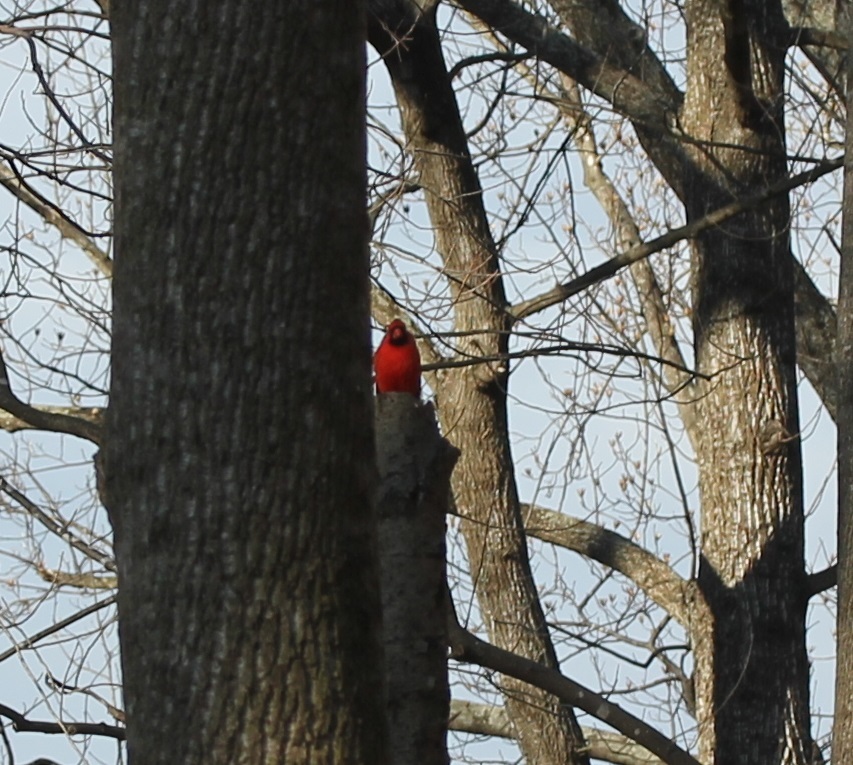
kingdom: Animalia
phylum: Chordata
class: Aves
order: Passeriformes
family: Cardinalidae
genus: Cardinalis
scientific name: Cardinalis cardinalis
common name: Northern cardinal
